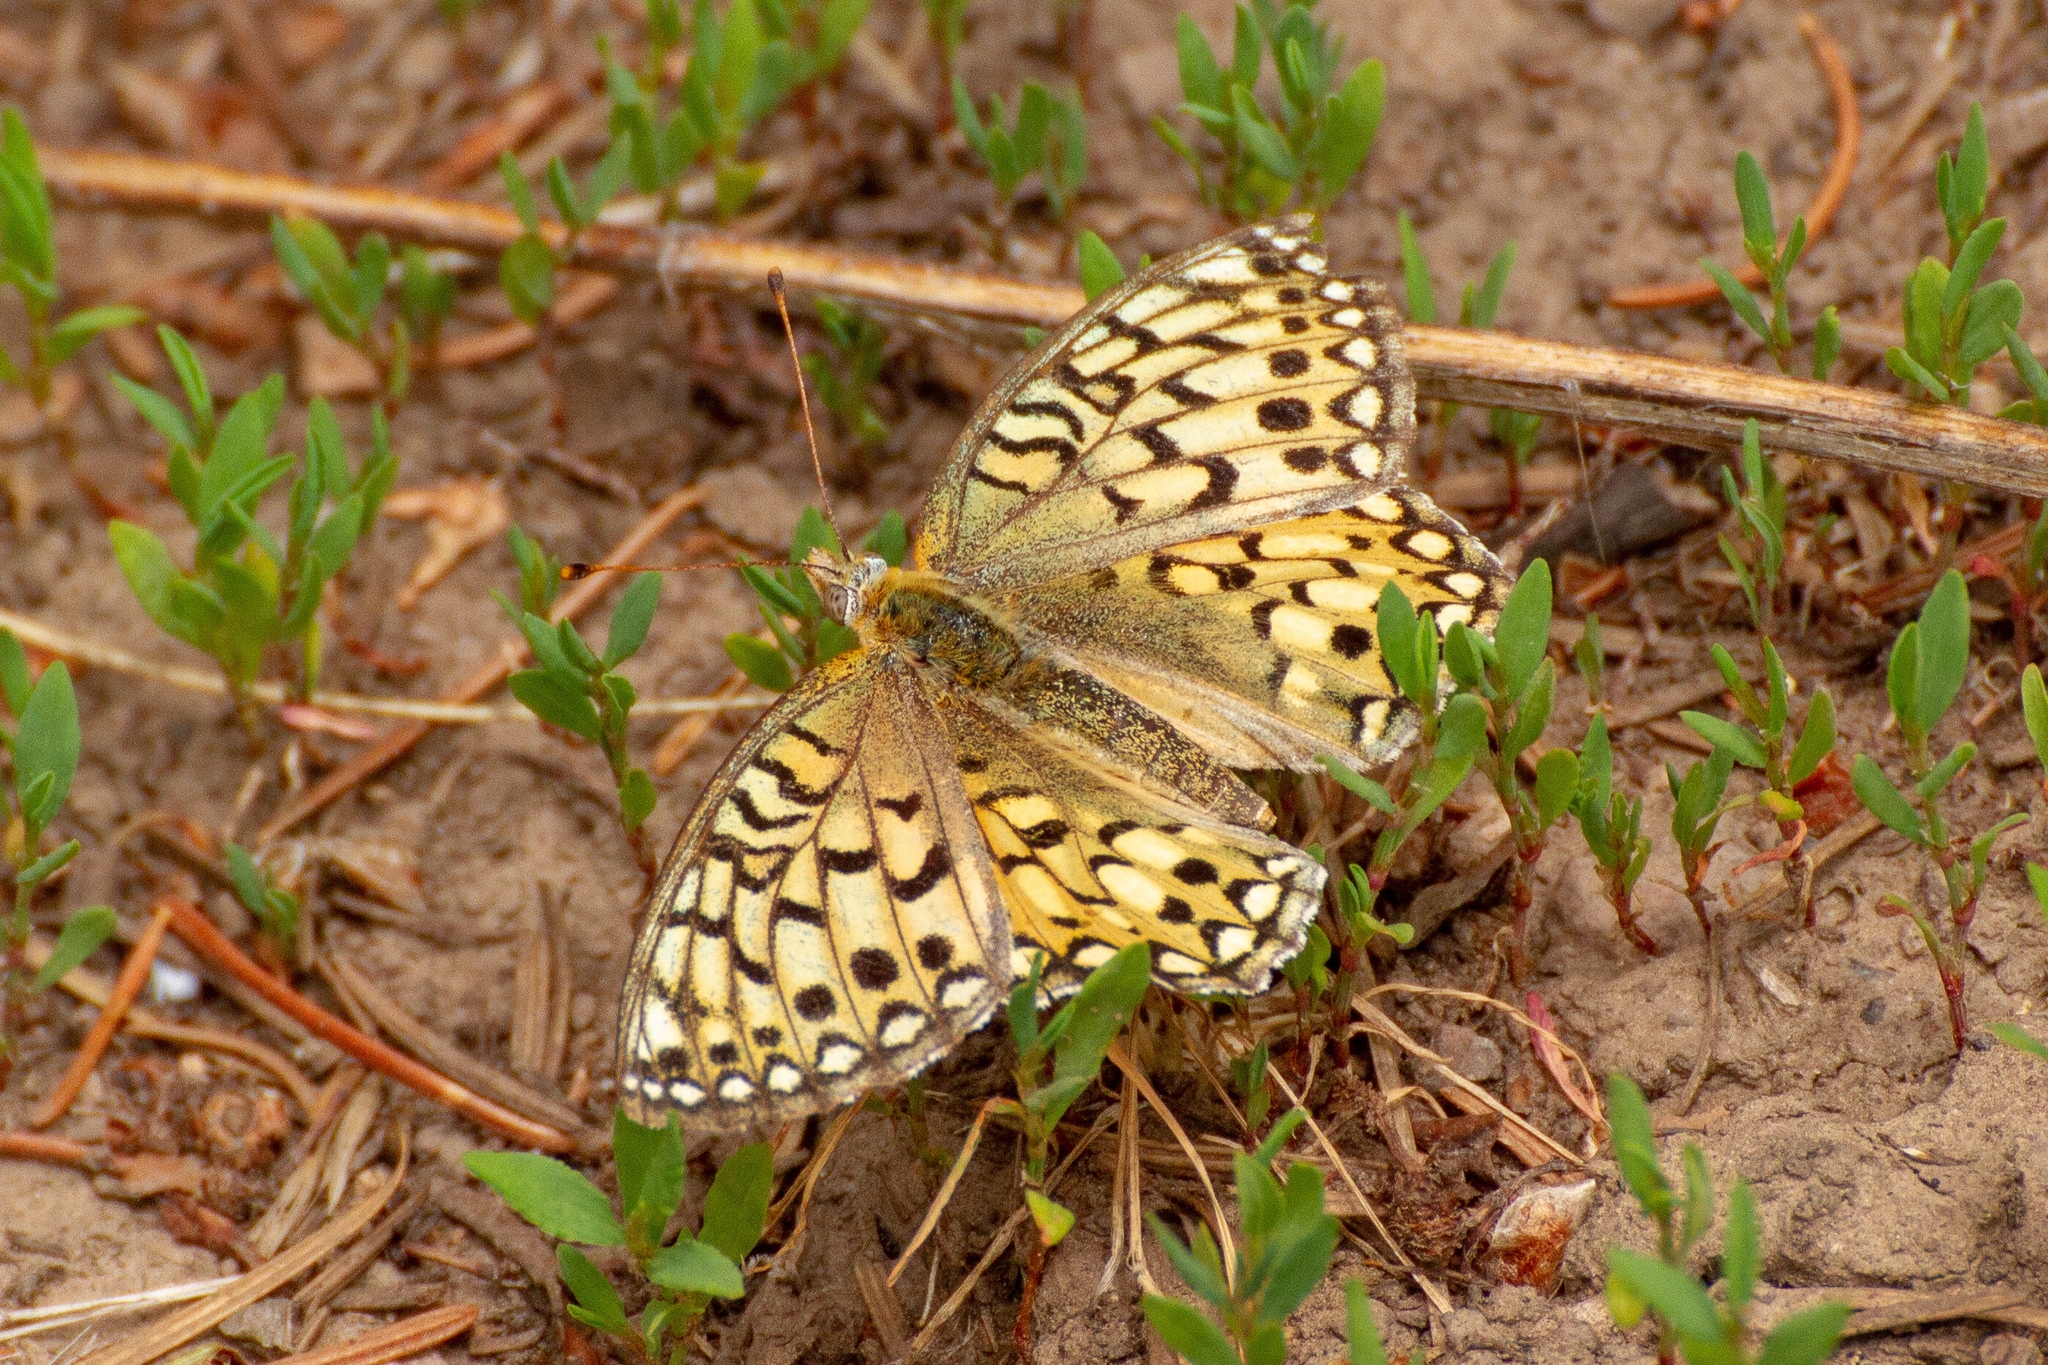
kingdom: Animalia
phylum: Arthropoda
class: Insecta
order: Lepidoptera
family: Nymphalidae
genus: Speyeria
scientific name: Speyeria callippe
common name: Callippe fritillary
